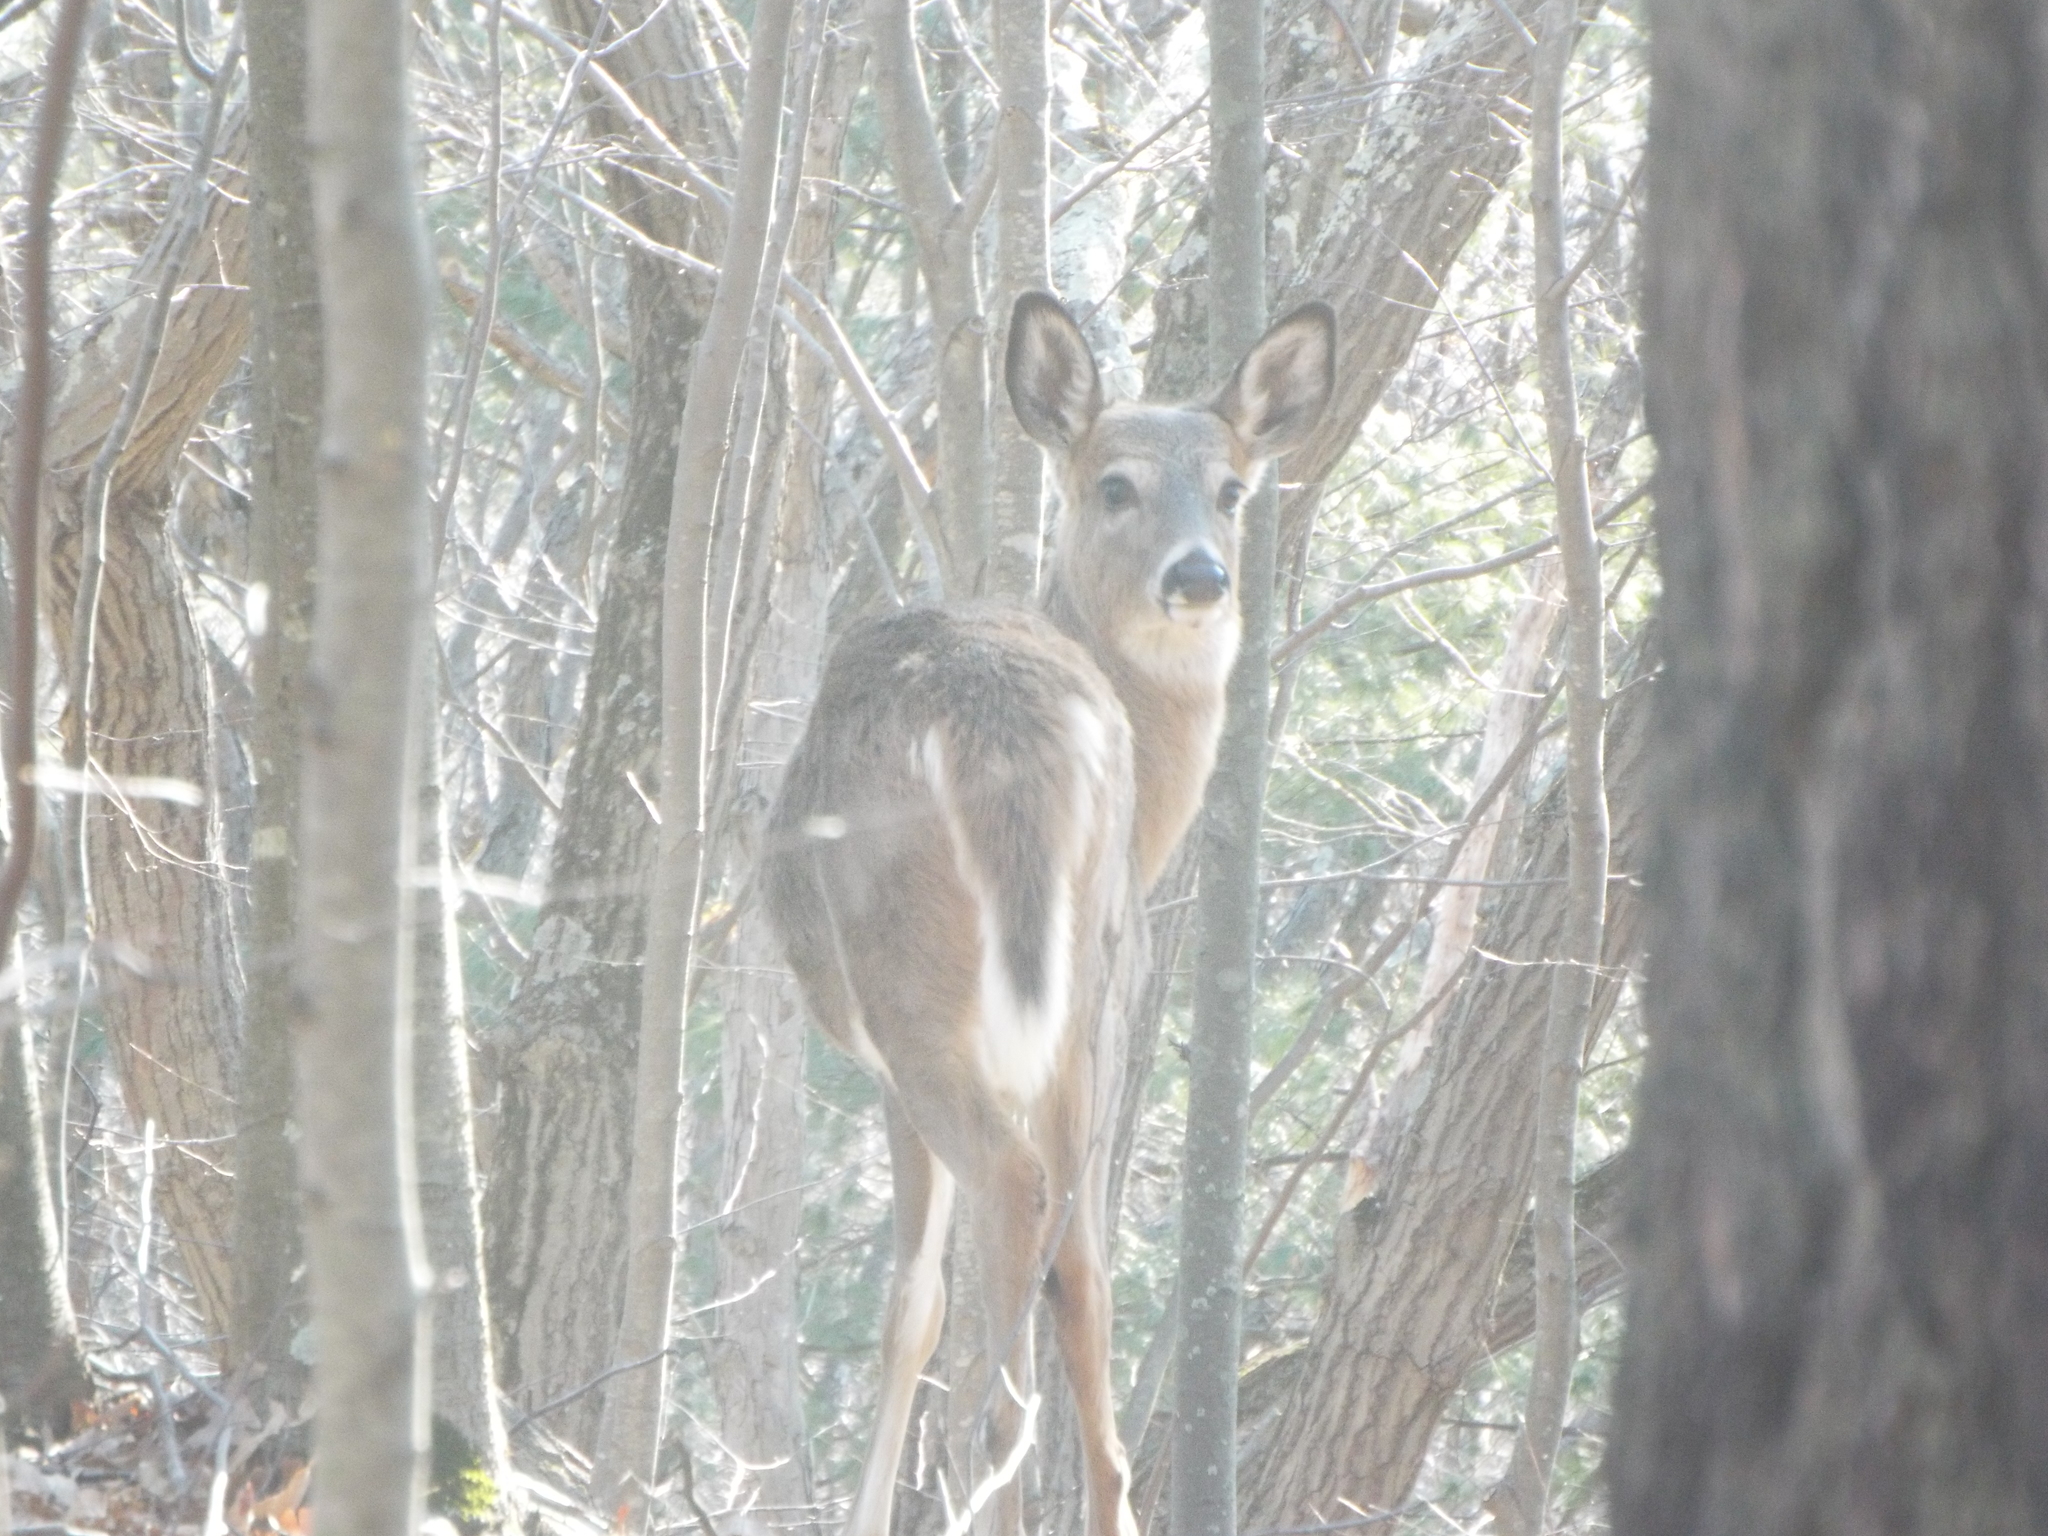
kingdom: Animalia
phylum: Chordata
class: Mammalia
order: Artiodactyla
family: Cervidae
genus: Odocoileus
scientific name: Odocoileus virginianus
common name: White-tailed deer
